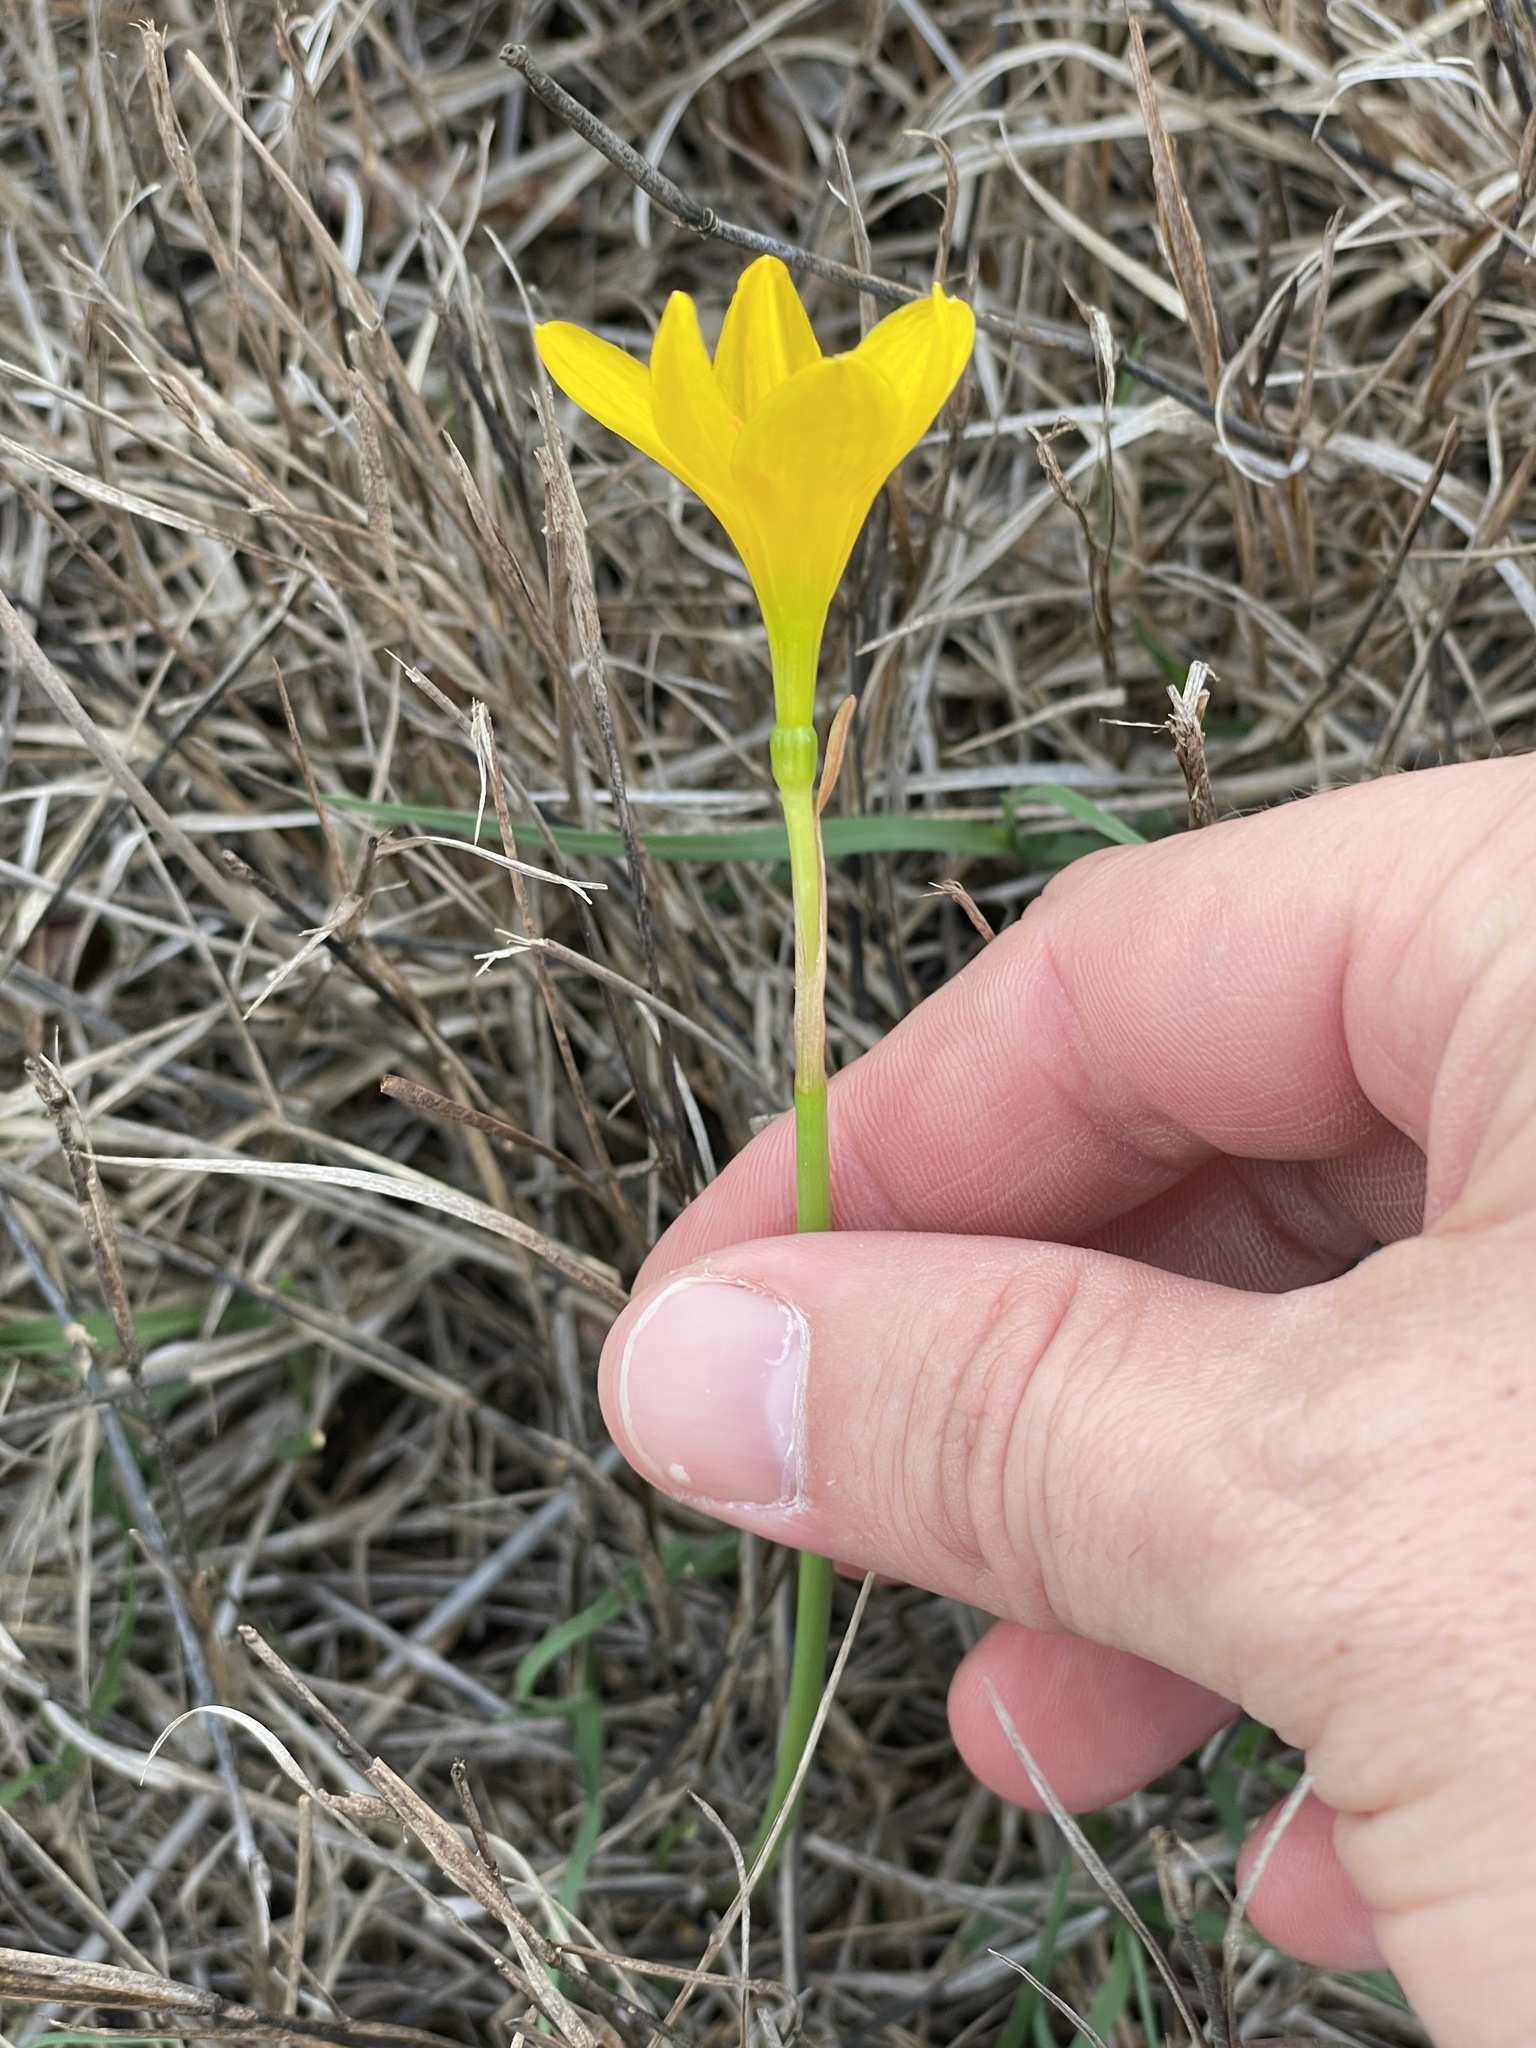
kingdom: Plantae
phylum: Tracheophyta
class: Liliopsida
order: Asparagales
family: Amaryllidaceae
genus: Zephyranthes
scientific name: Zephyranthes pulchella
